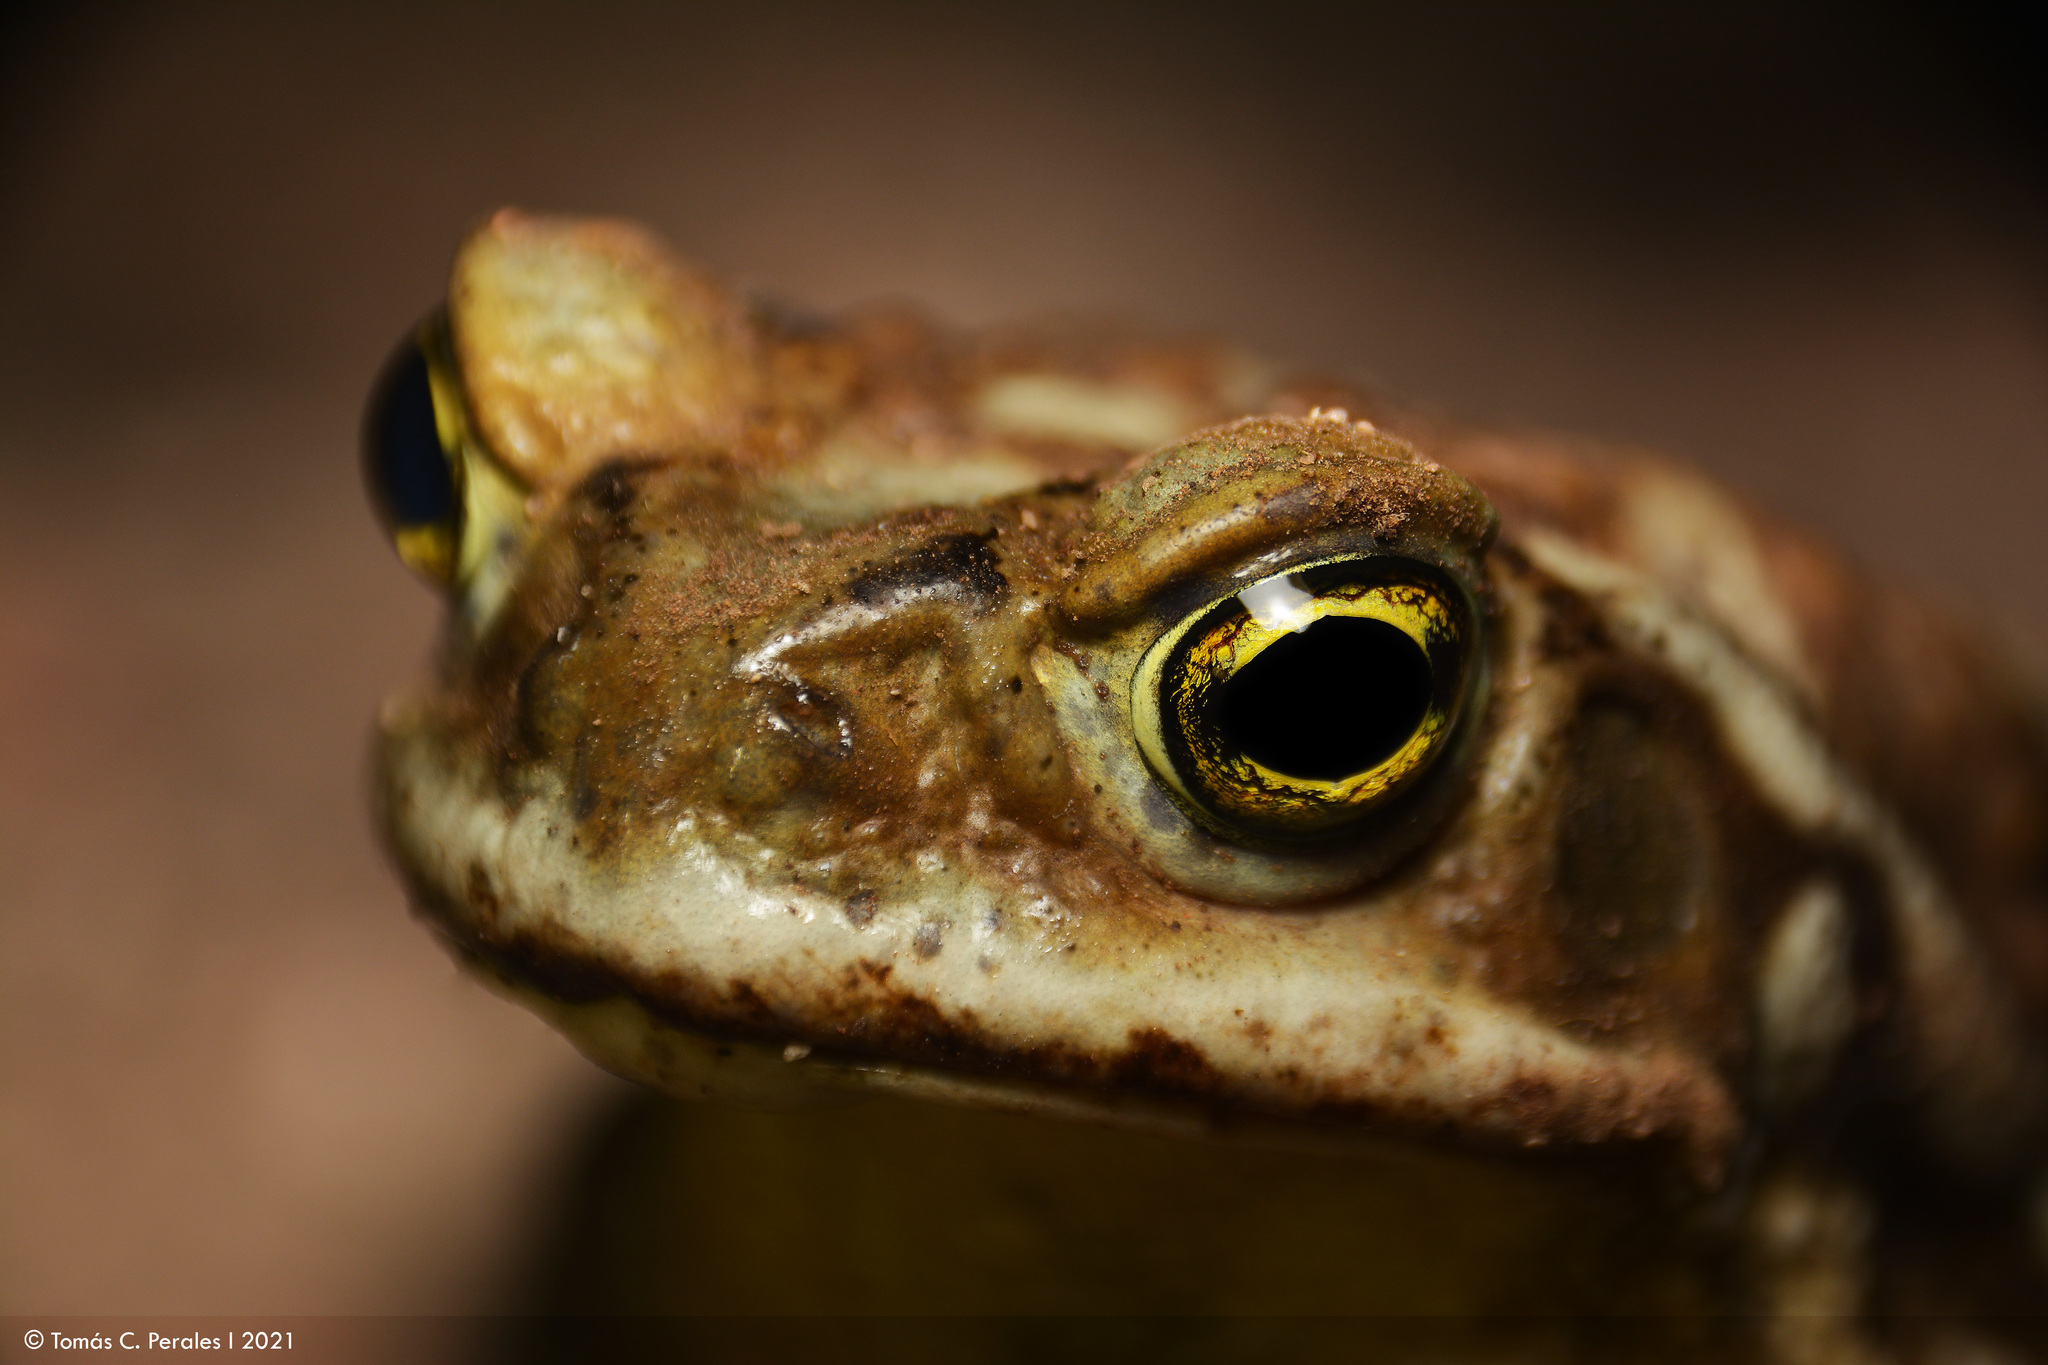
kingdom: Animalia
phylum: Chordata
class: Amphibia
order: Anura
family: Bufonidae
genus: Rhinella
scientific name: Rhinella arenarum
